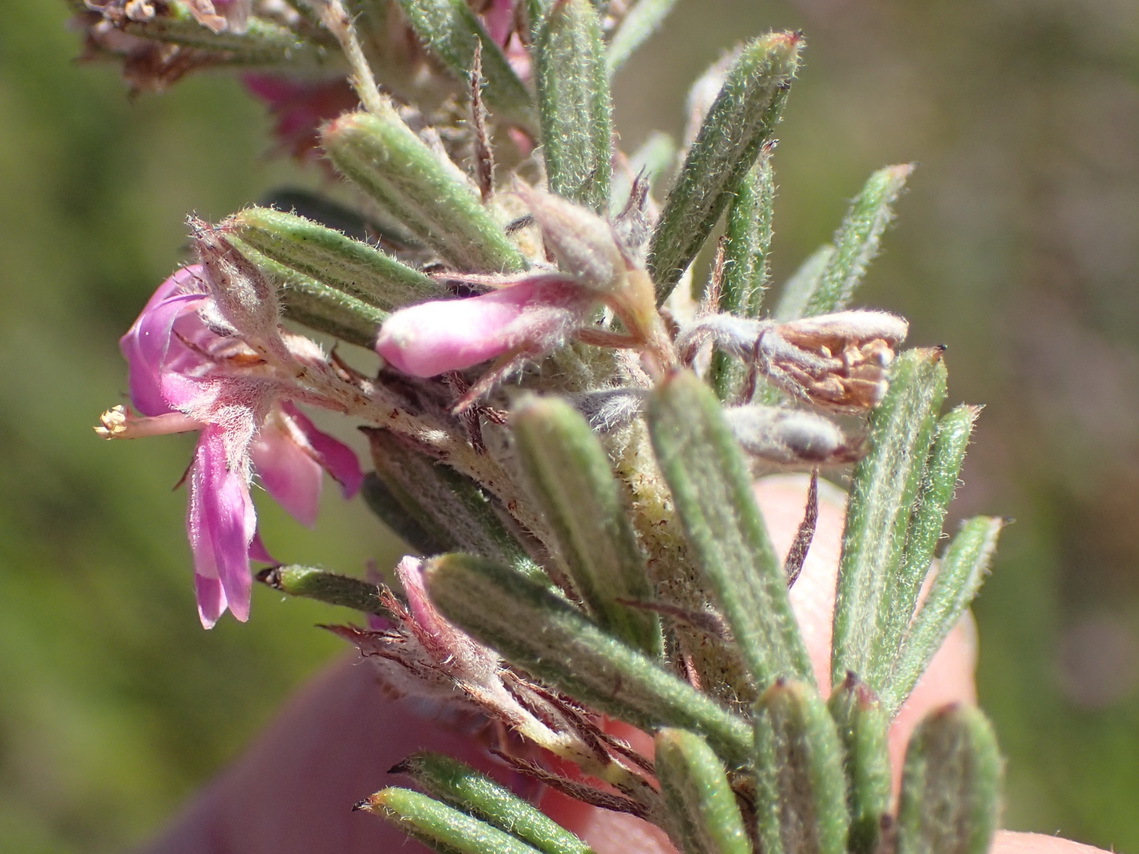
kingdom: Plantae
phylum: Tracheophyta
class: Magnoliopsida
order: Fabales
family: Fabaceae
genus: Indigofera
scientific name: Indigofera rhodantha
